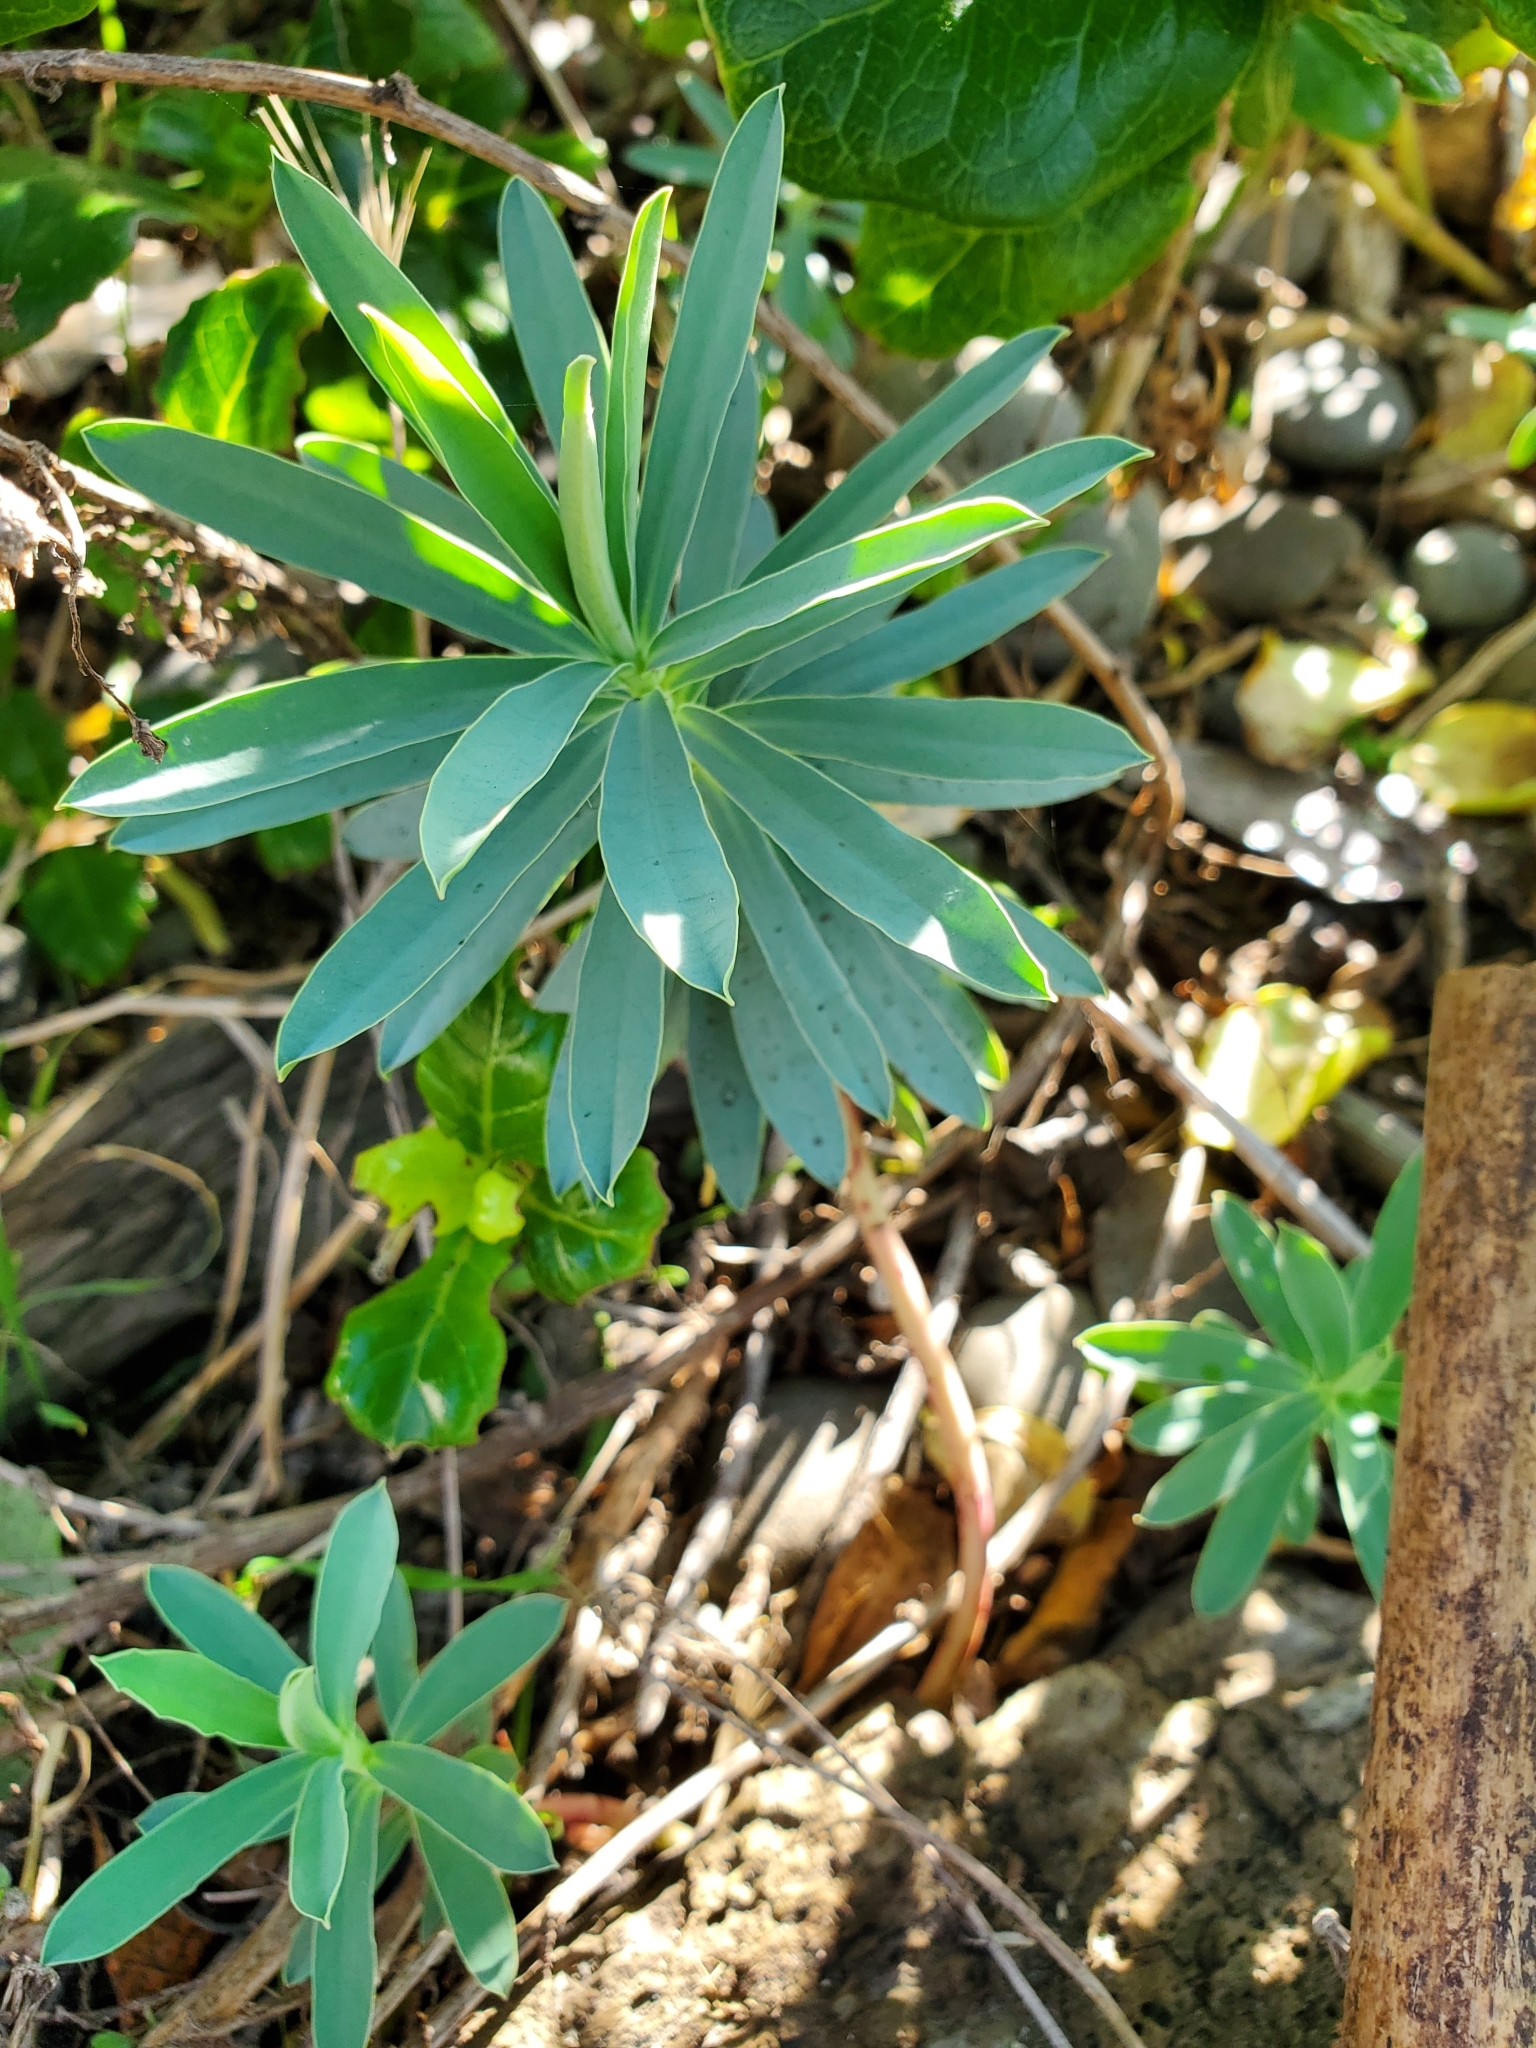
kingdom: Plantae
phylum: Tracheophyta
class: Magnoliopsida
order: Malpighiales
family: Euphorbiaceae
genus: Euphorbia
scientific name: Euphorbia glauca
